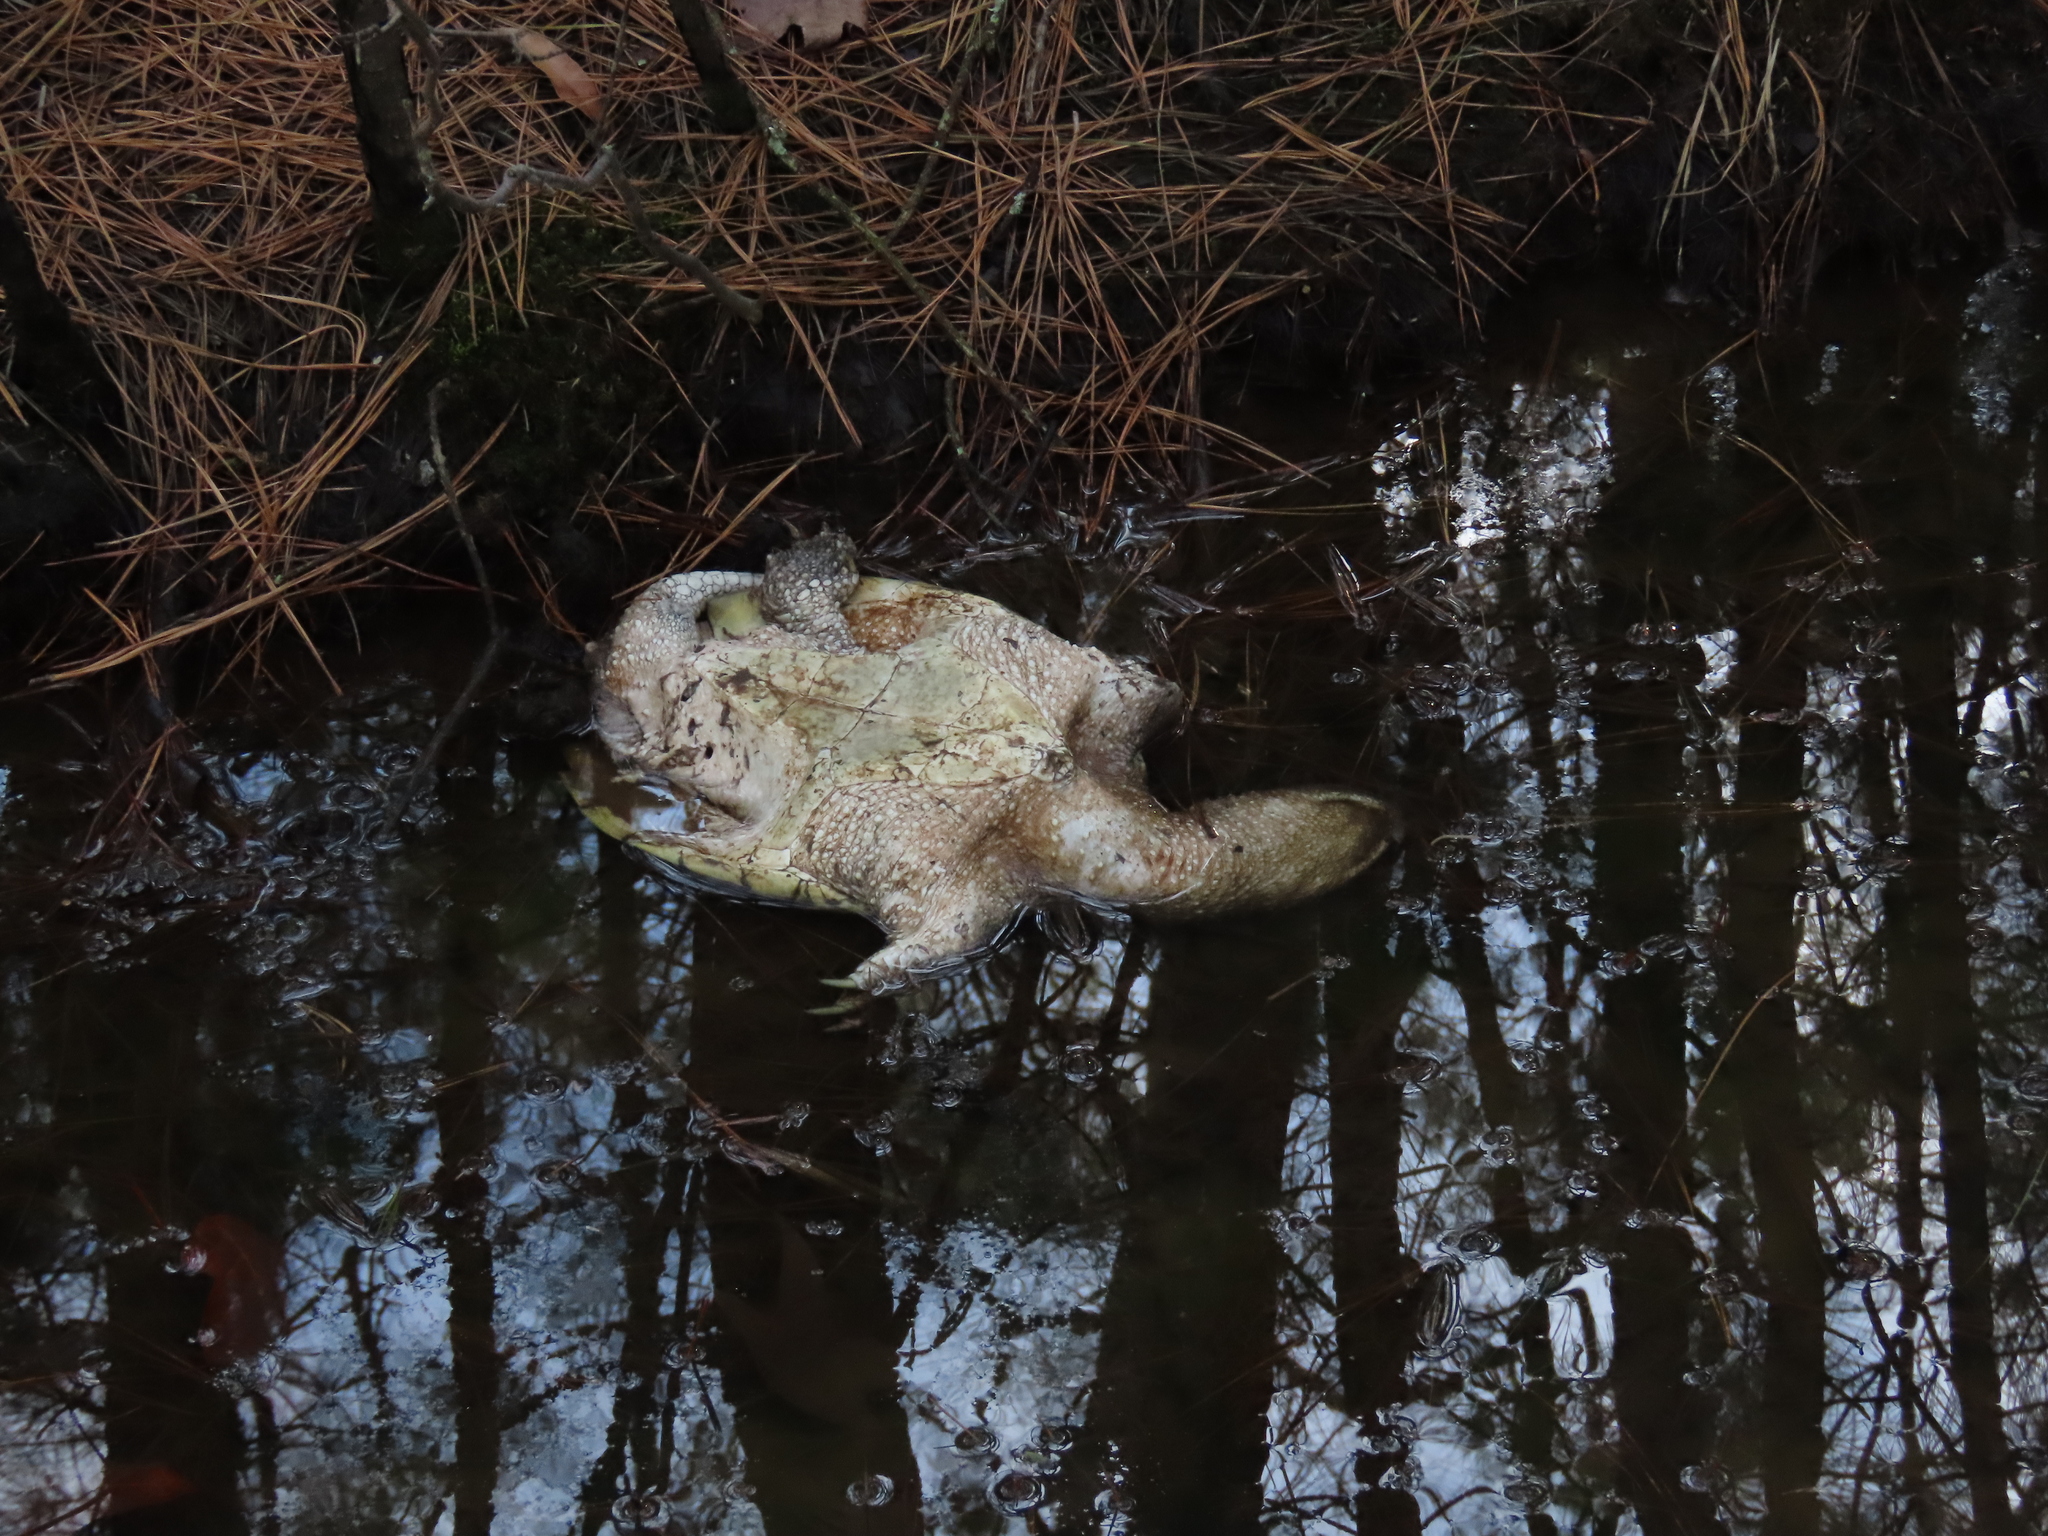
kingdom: Animalia
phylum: Chordata
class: Testudines
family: Chelydridae
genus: Chelydra
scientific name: Chelydra serpentina
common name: Common snapping turtle
